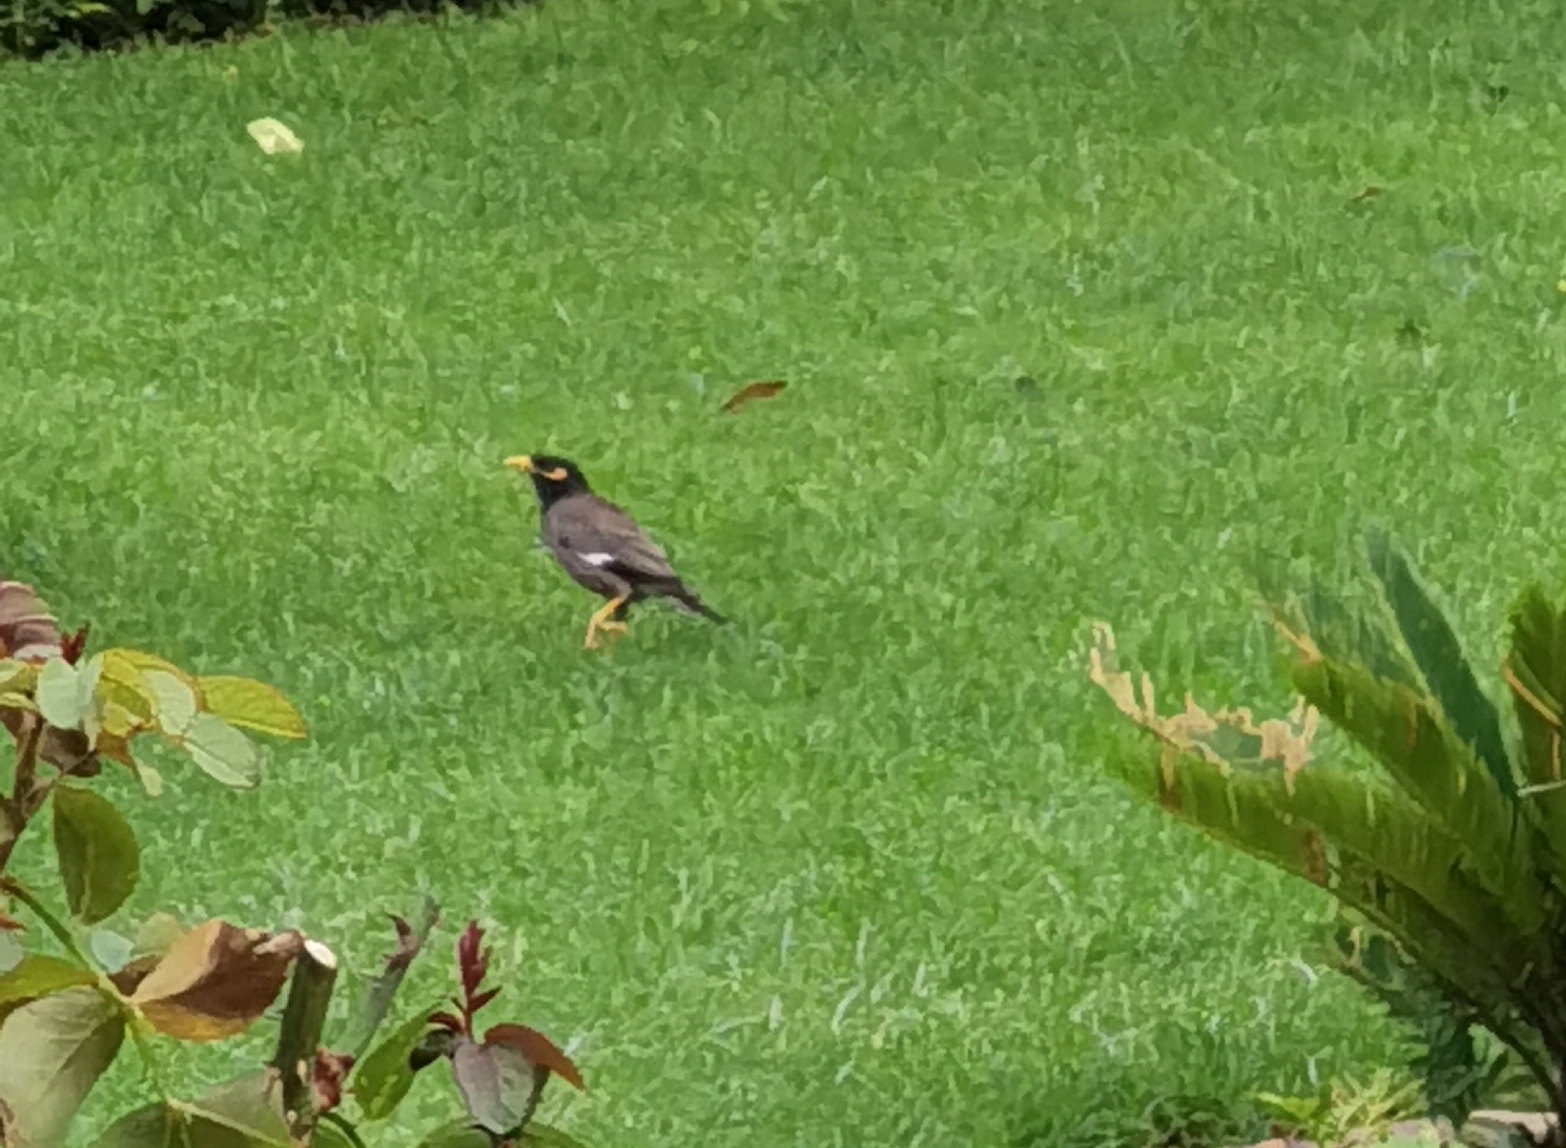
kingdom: Animalia
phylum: Chordata
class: Aves
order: Passeriformes
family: Sturnidae
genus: Acridotheres
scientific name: Acridotheres tristis
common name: Common myna
